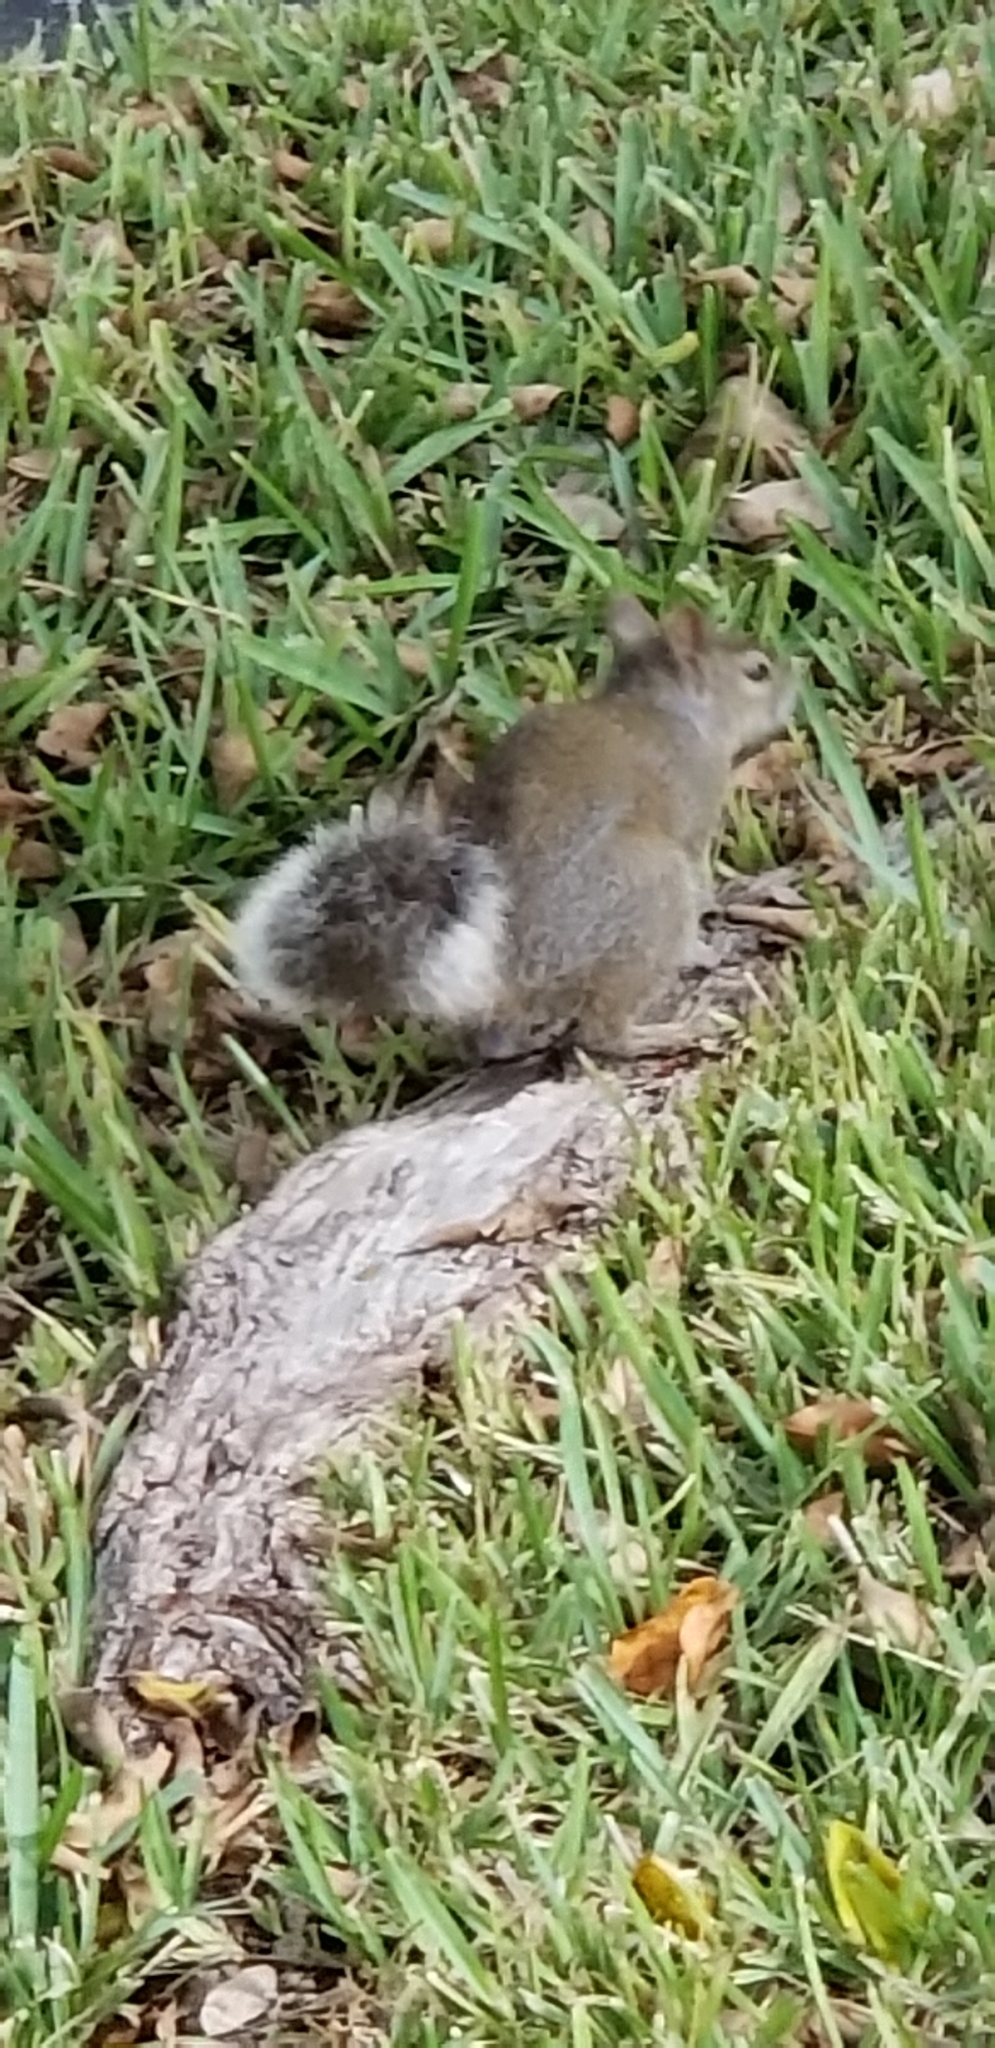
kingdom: Animalia
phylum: Chordata
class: Mammalia
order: Rodentia
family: Sciuridae
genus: Sciurus
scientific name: Sciurus carolinensis
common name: Eastern gray squirrel
